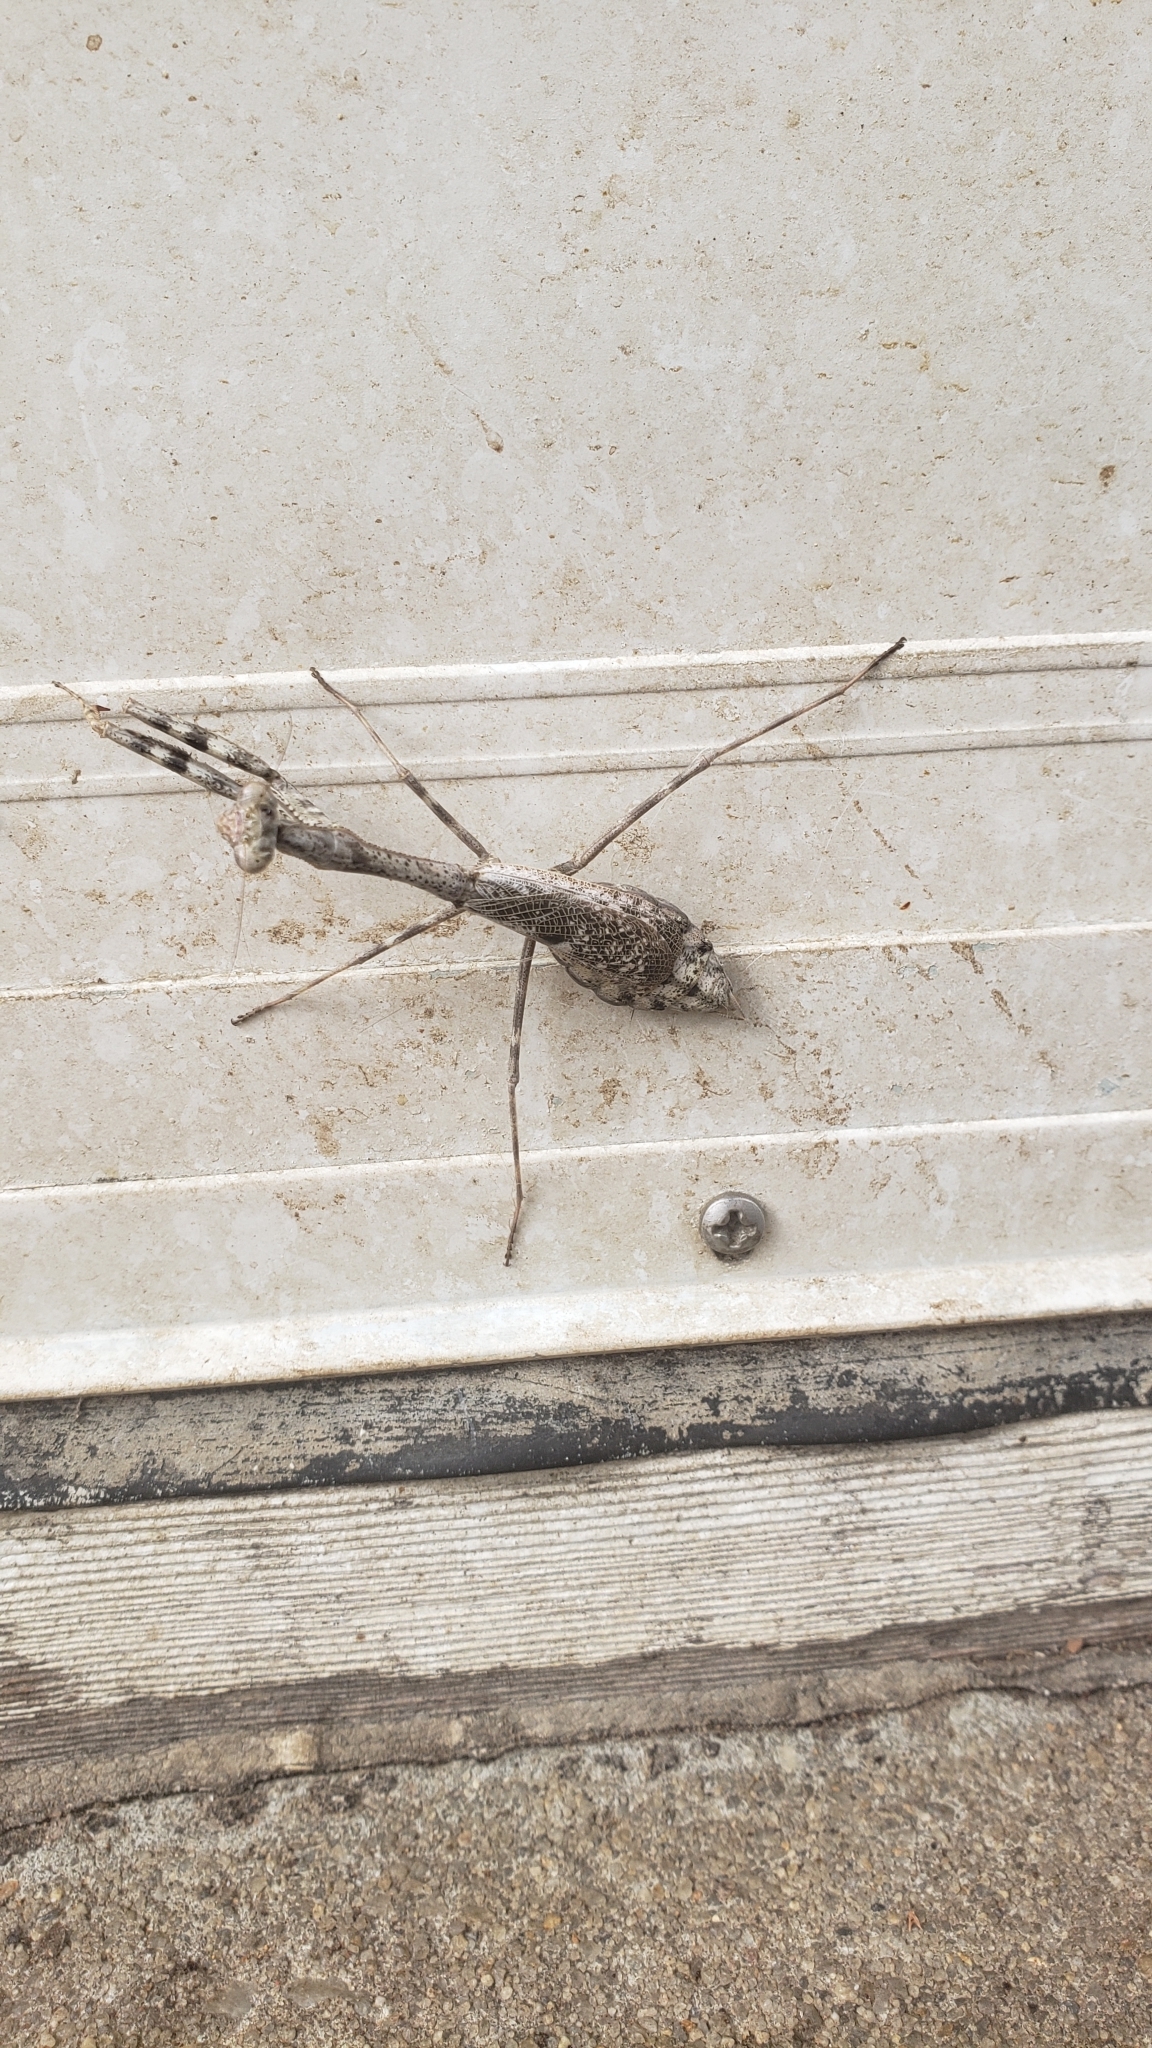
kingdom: Animalia
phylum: Arthropoda
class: Insecta
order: Mantodea
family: Mantidae
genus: Stagmomantis
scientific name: Stagmomantis carolina
